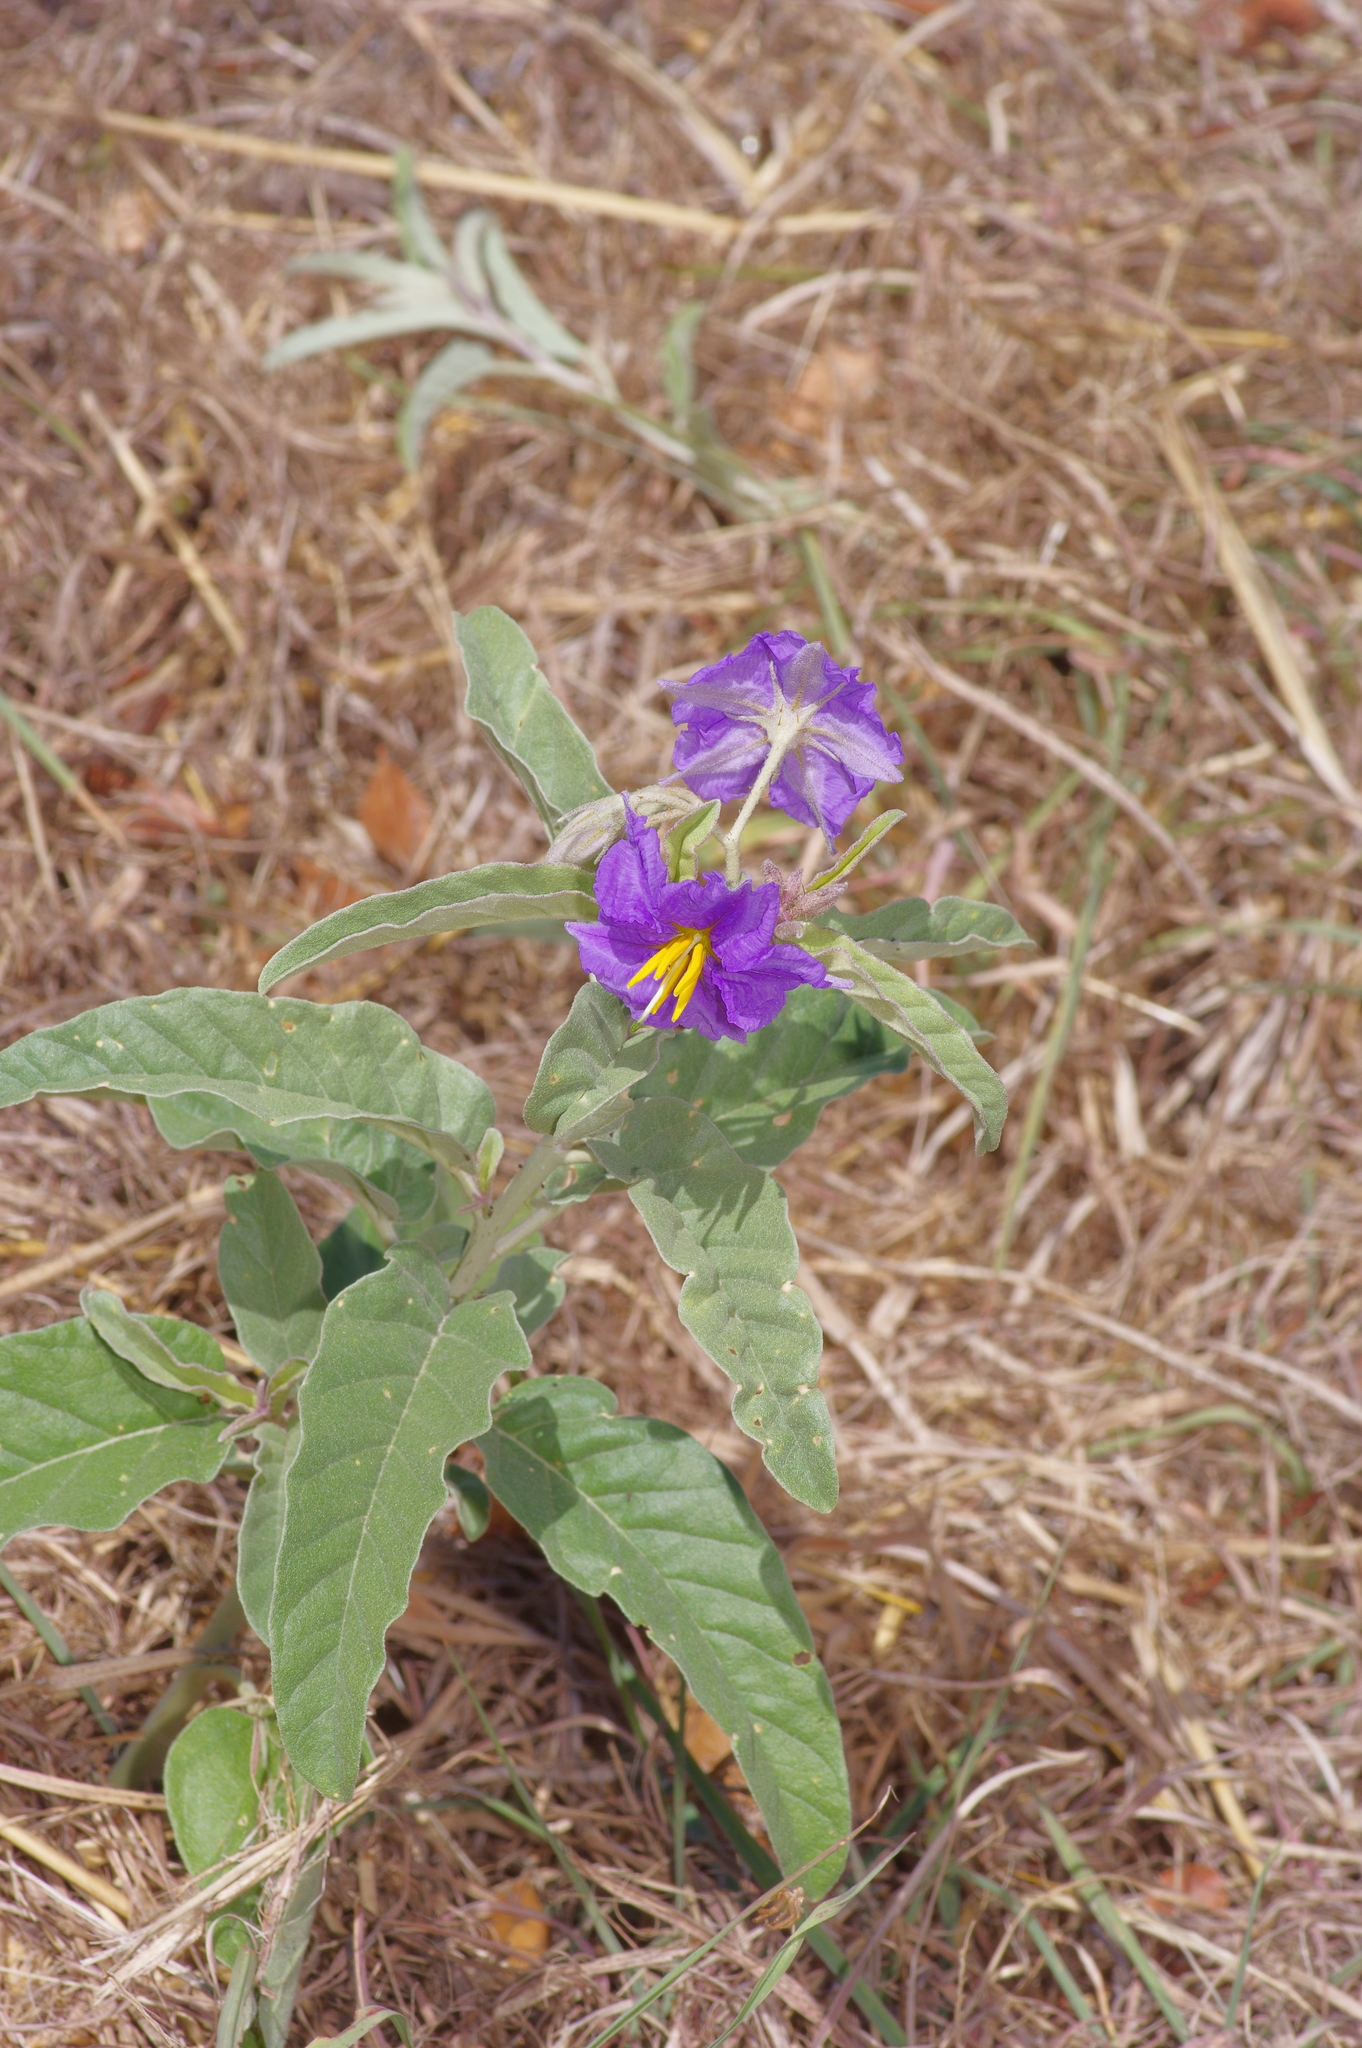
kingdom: Plantae
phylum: Tracheophyta
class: Magnoliopsida
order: Solanales
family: Solanaceae
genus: Solanum
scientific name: Solanum elaeagnifolium
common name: Silverleaf nightshade
